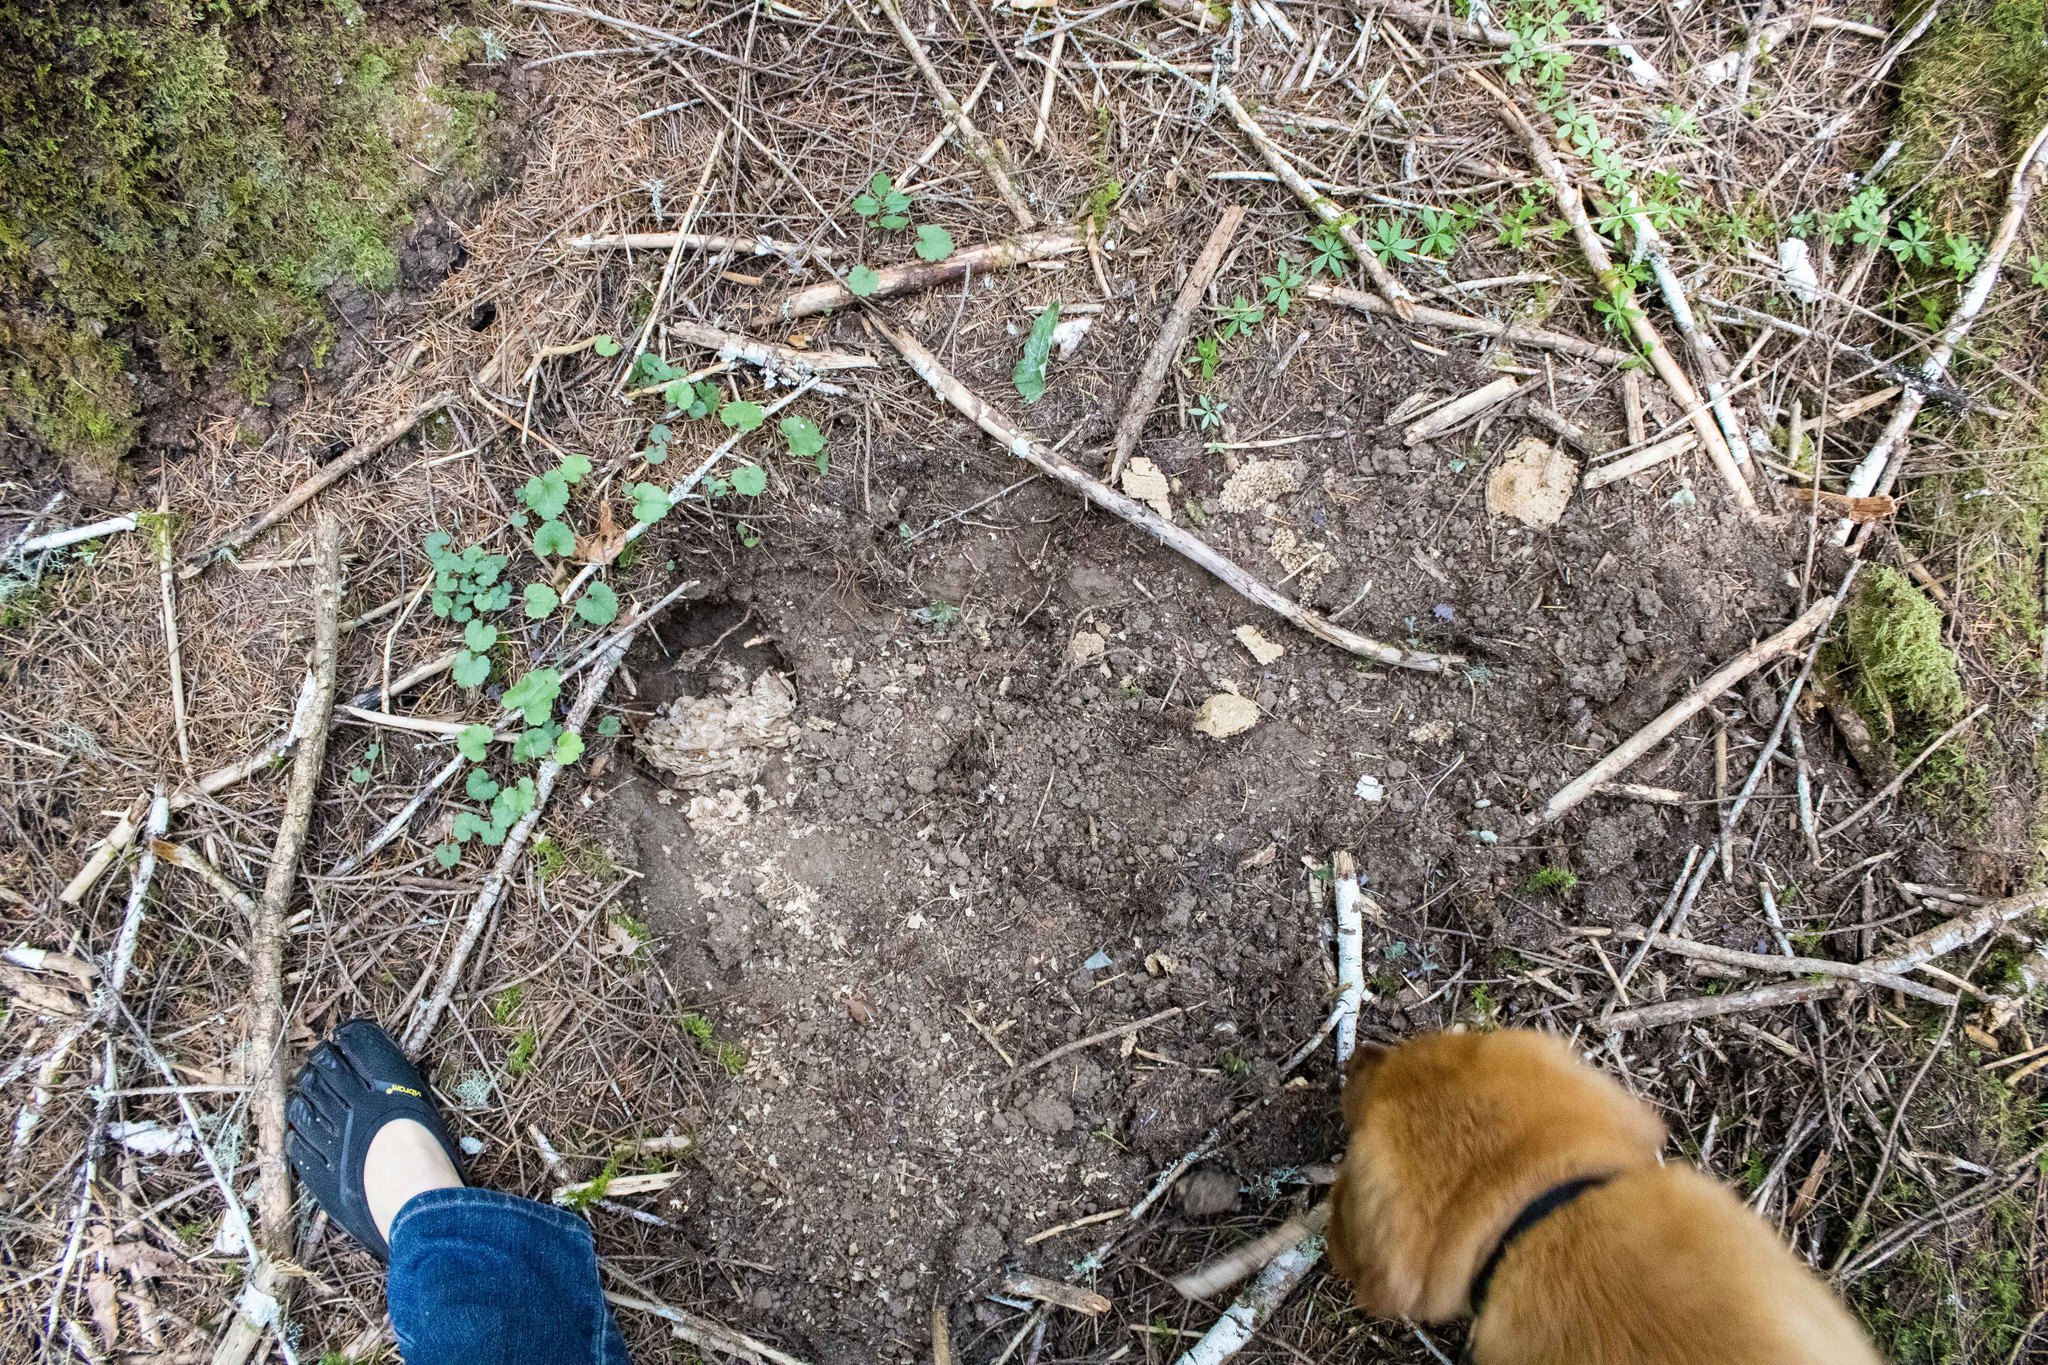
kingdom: Animalia
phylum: Chordata
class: Mammalia
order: Carnivora
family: Ursidae
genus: Ursus
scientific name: Ursus americanus
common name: American black bear
